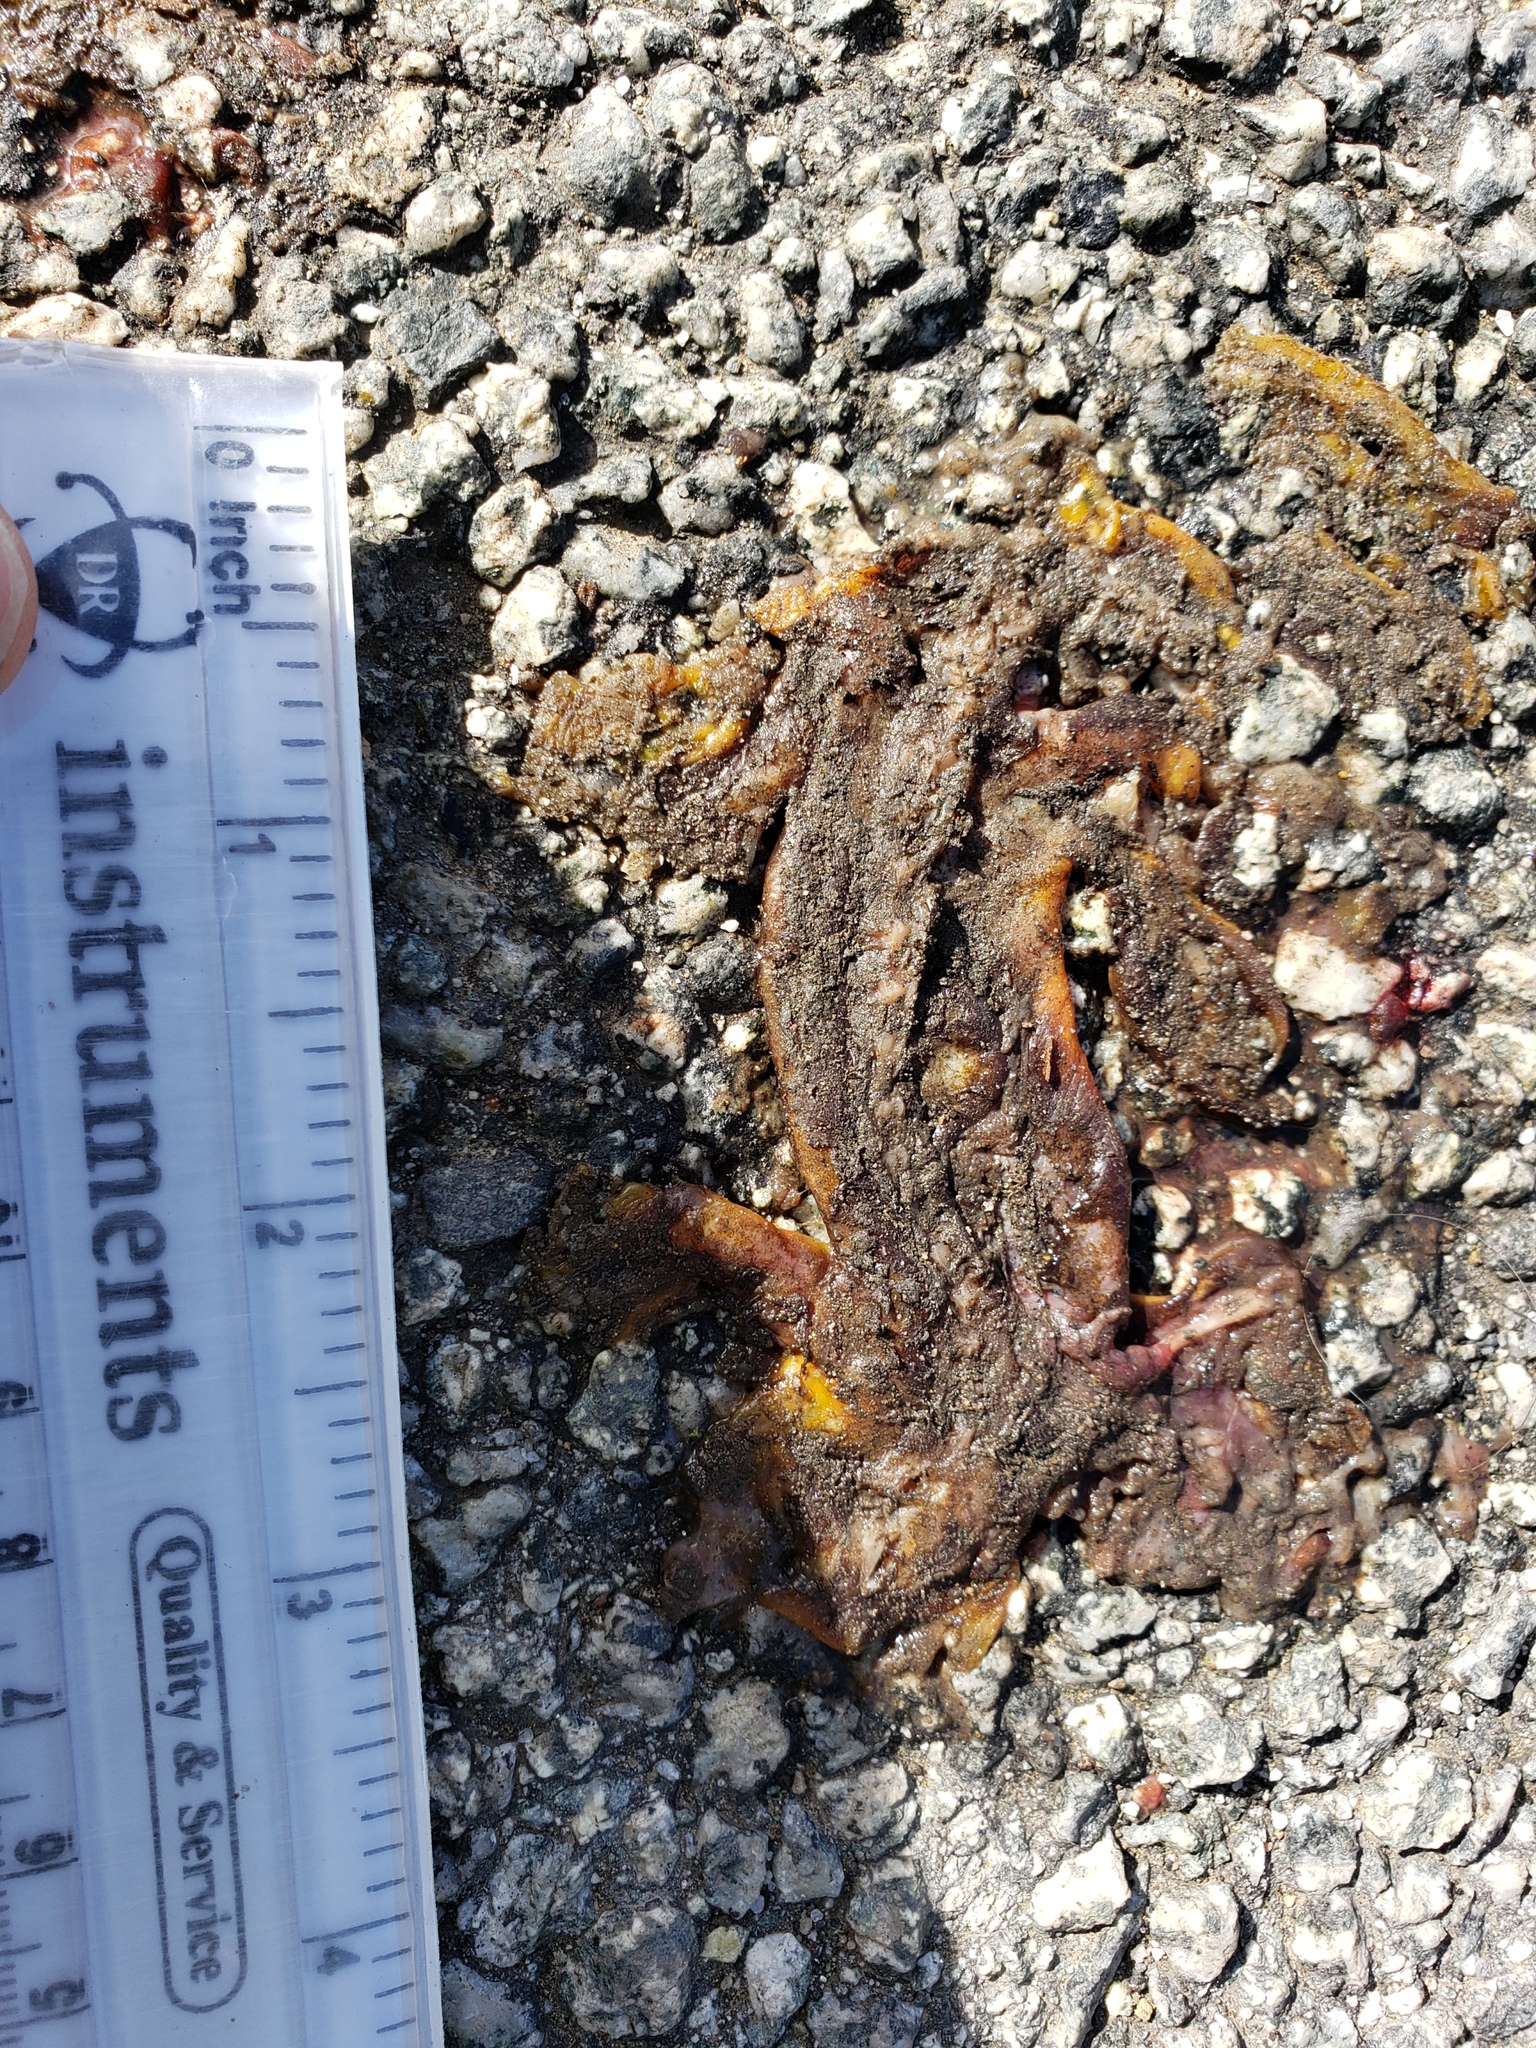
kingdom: Animalia
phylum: Chordata
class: Amphibia
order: Caudata
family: Salamandridae
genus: Taricha
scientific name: Taricha
